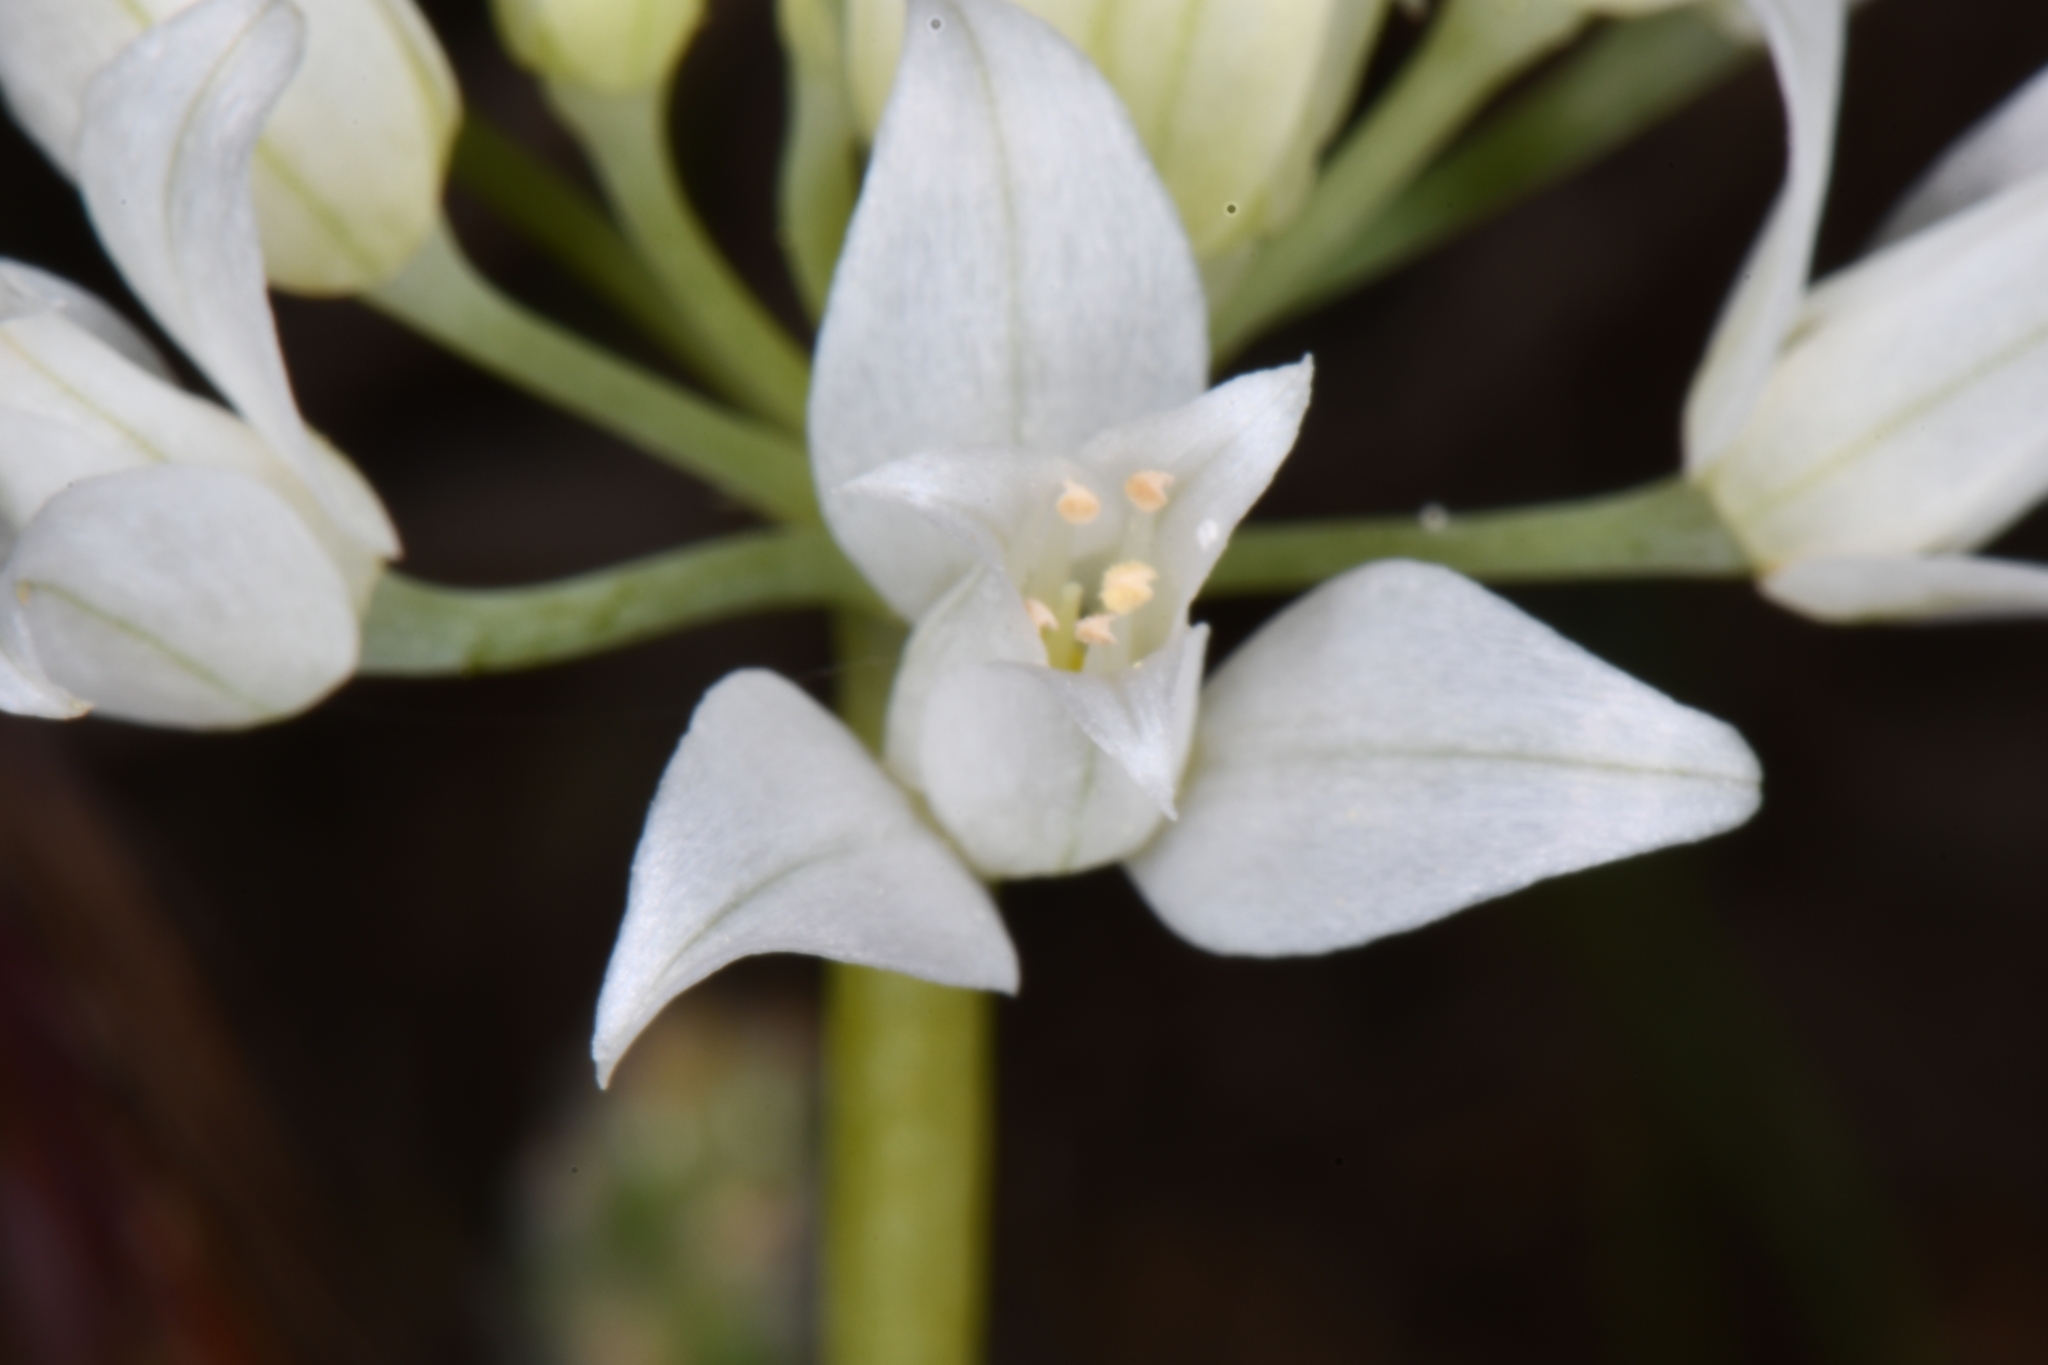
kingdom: Plantae
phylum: Tracheophyta
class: Liliopsida
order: Asparagales
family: Amaryllidaceae
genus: Allium
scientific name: Allium acuminatum
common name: Hooker's onion
